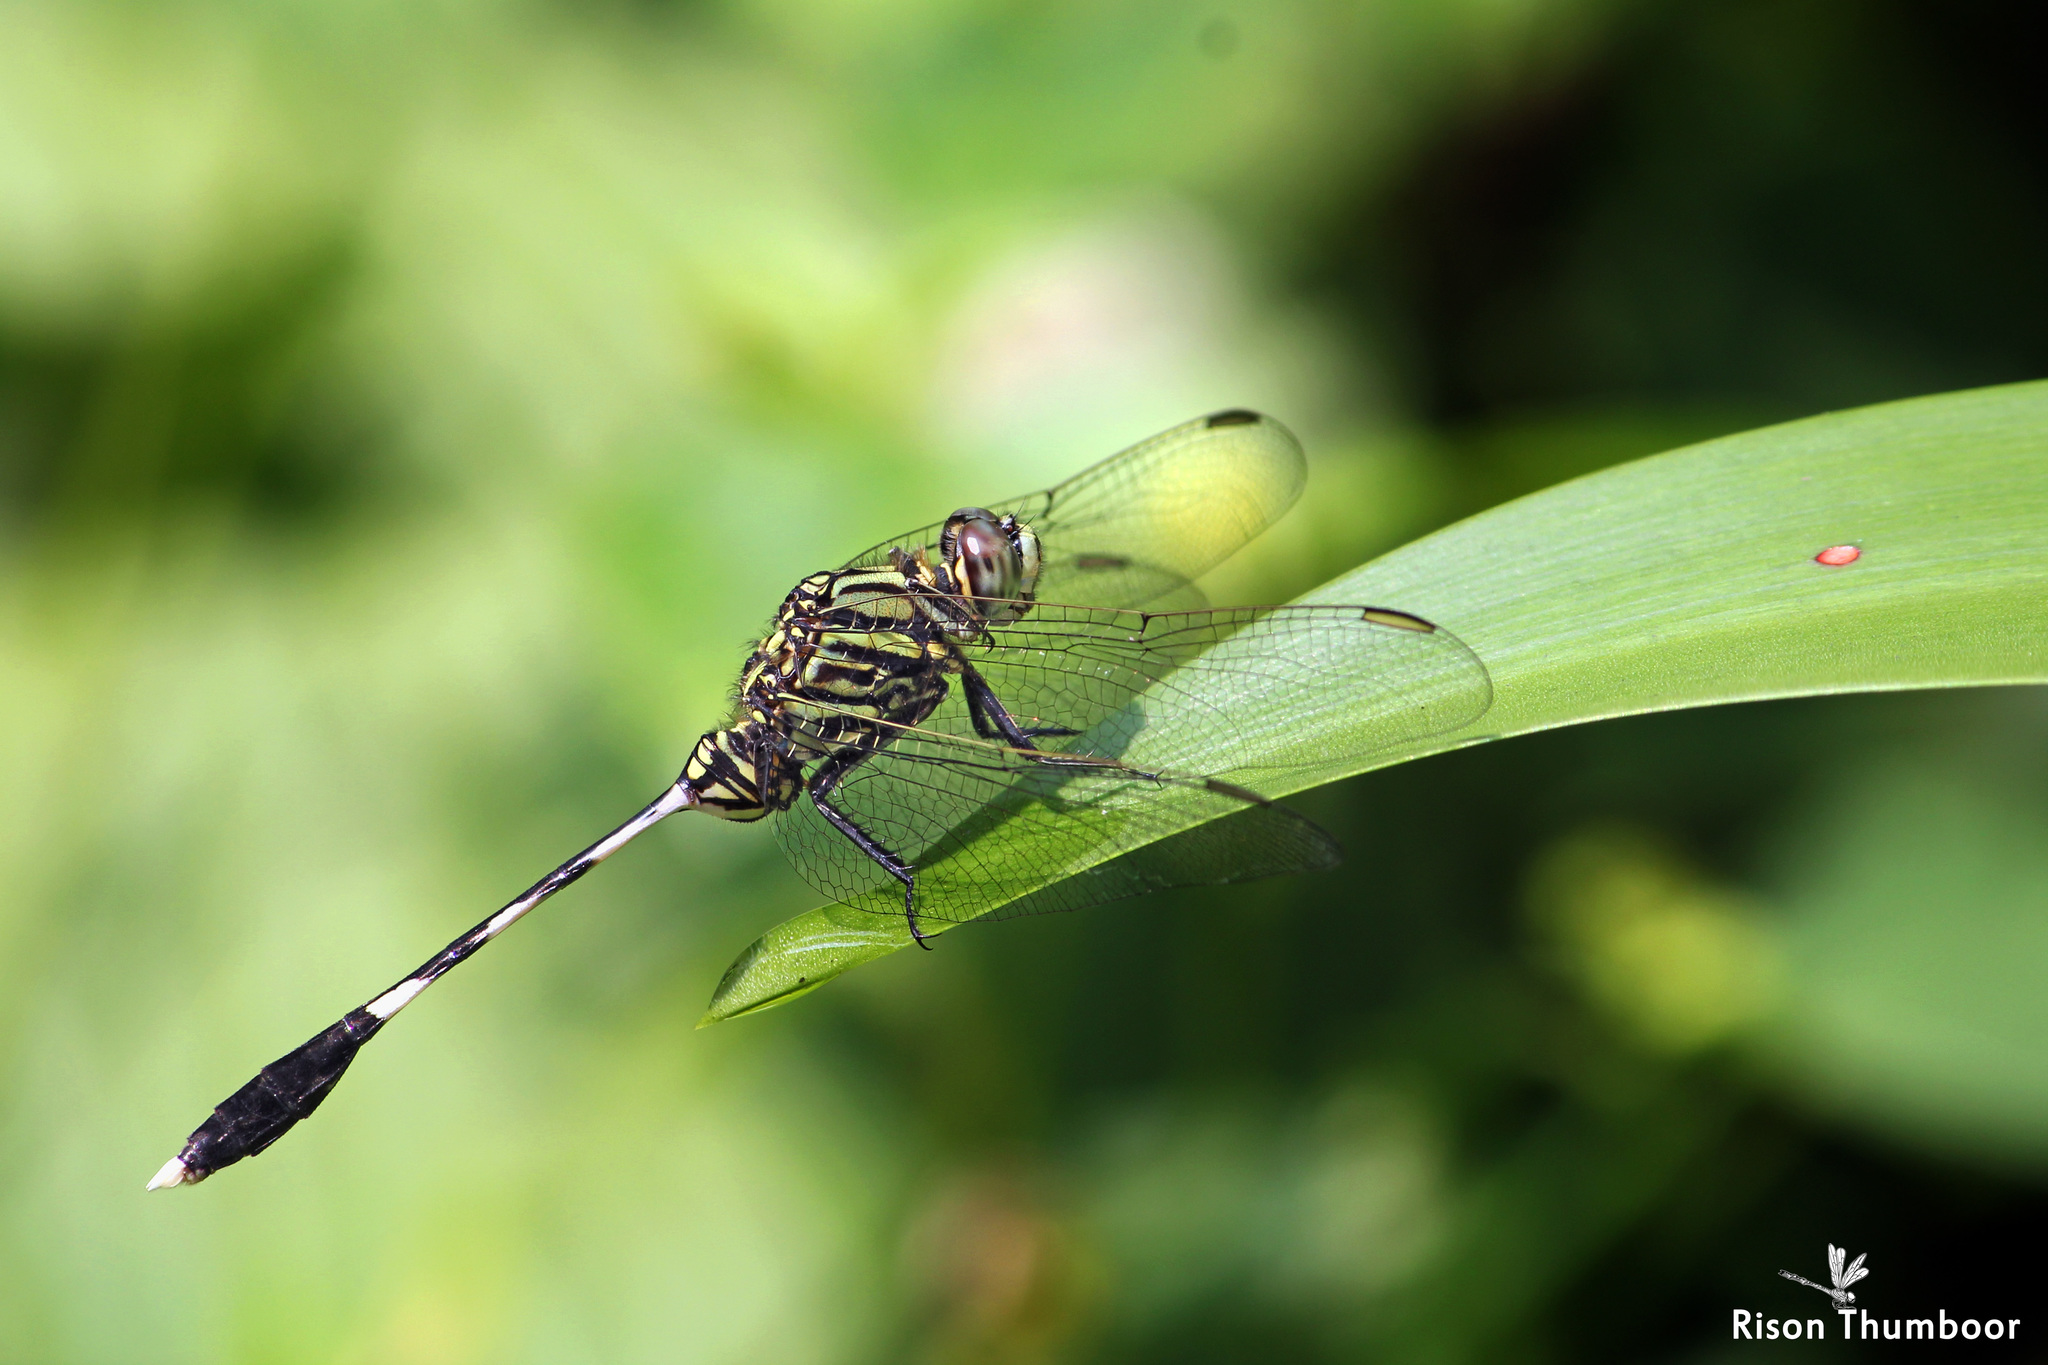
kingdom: Animalia
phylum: Arthropoda
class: Insecta
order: Odonata
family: Libellulidae
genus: Orthetrum
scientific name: Orthetrum sabina
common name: Slender skimmer
